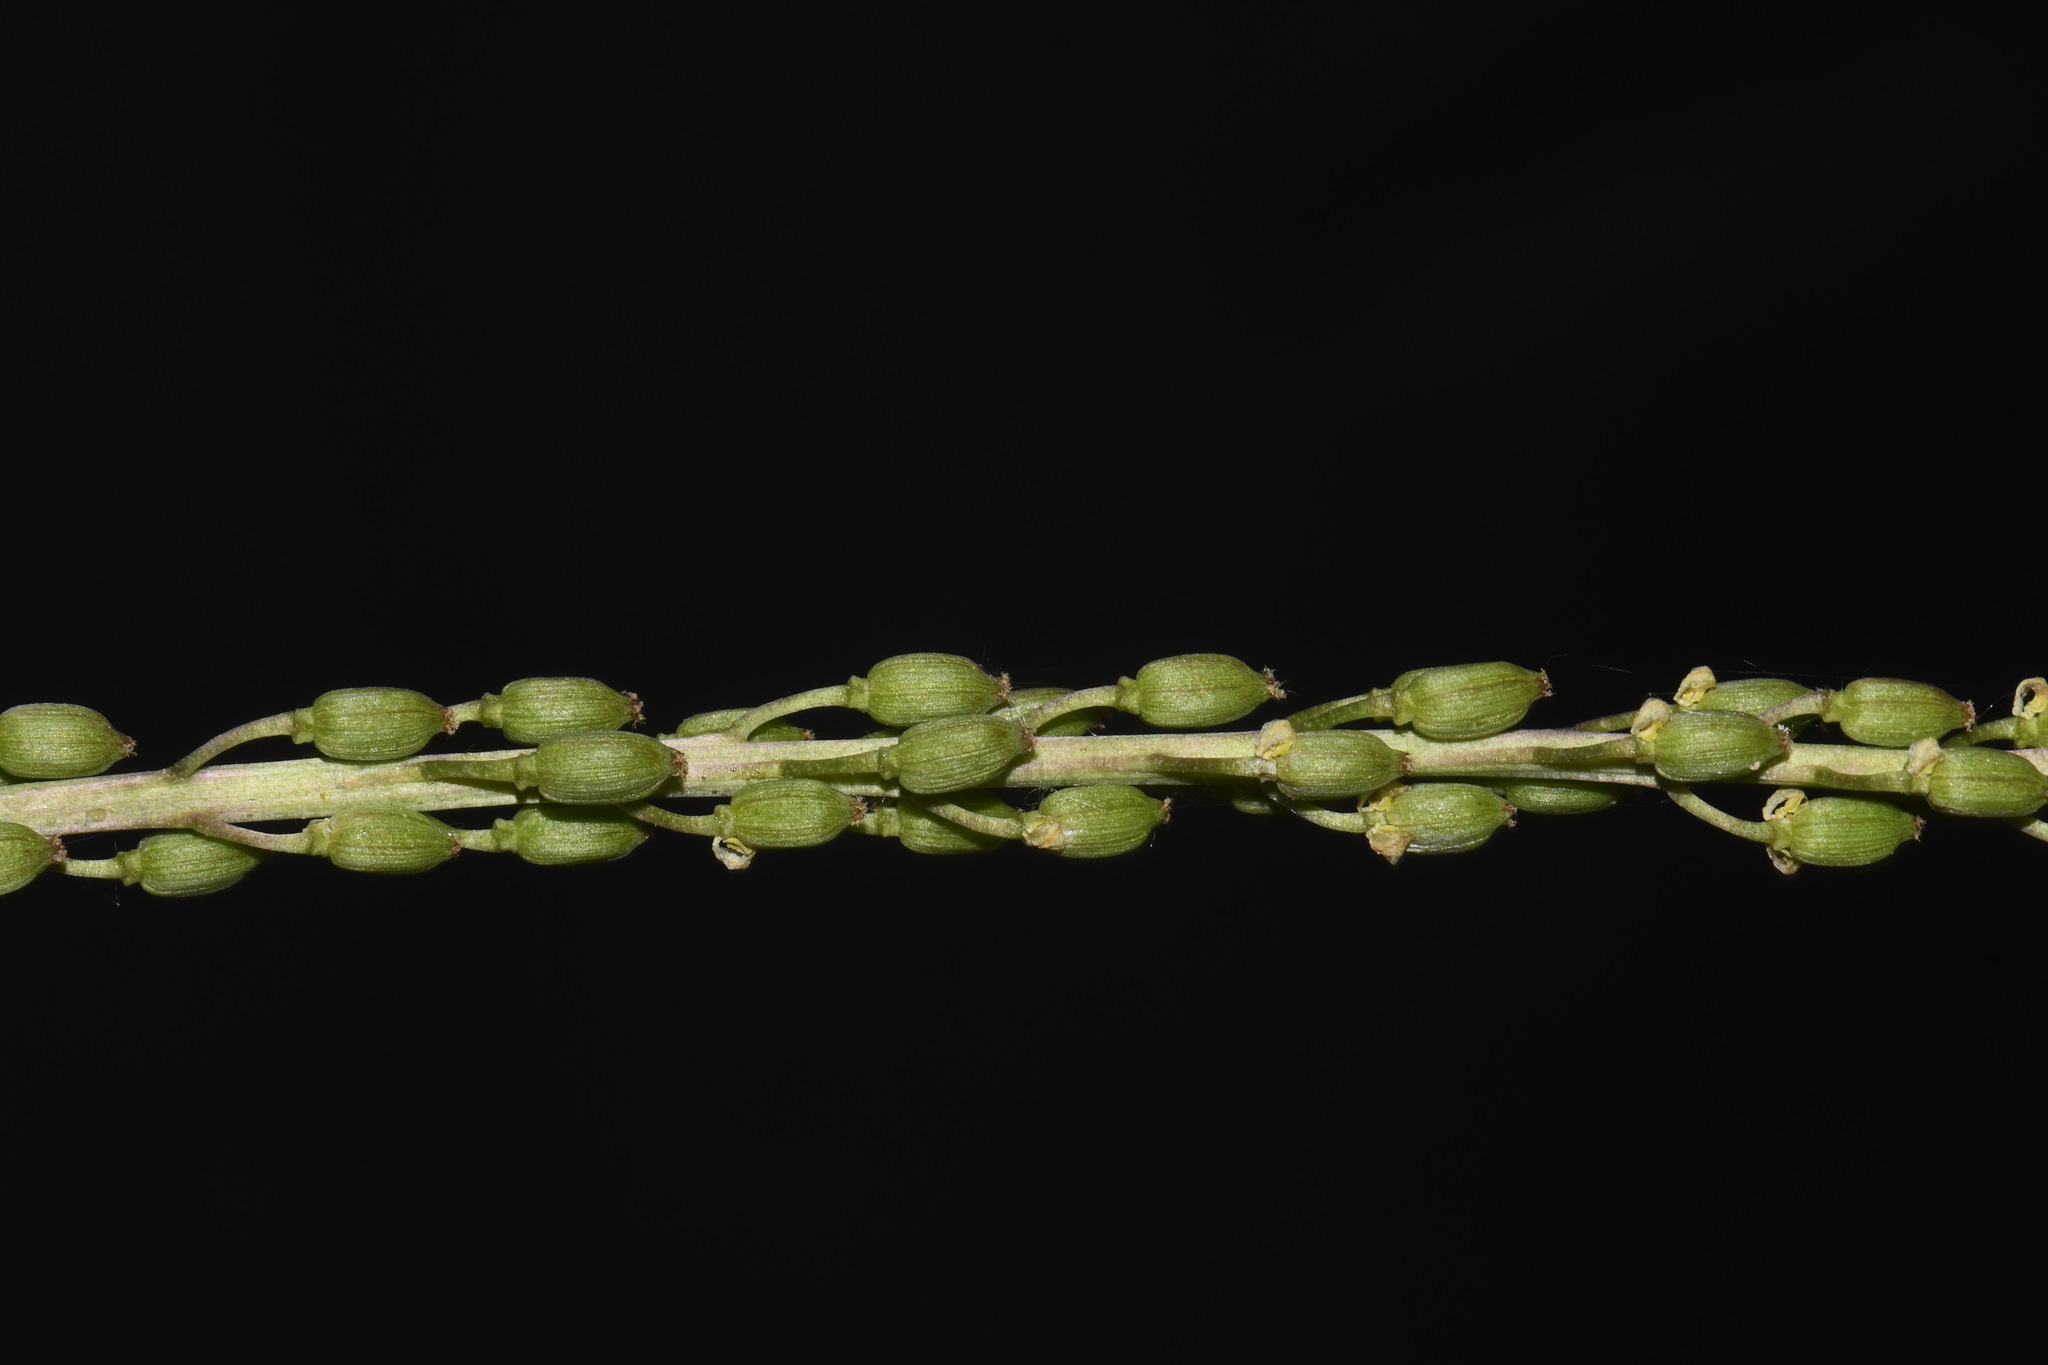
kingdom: Plantae
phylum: Tracheophyta
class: Liliopsida
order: Alismatales
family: Juncaginaceae
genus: Triglochin
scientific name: Triglochin maritima
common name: Sea arrowgrass
